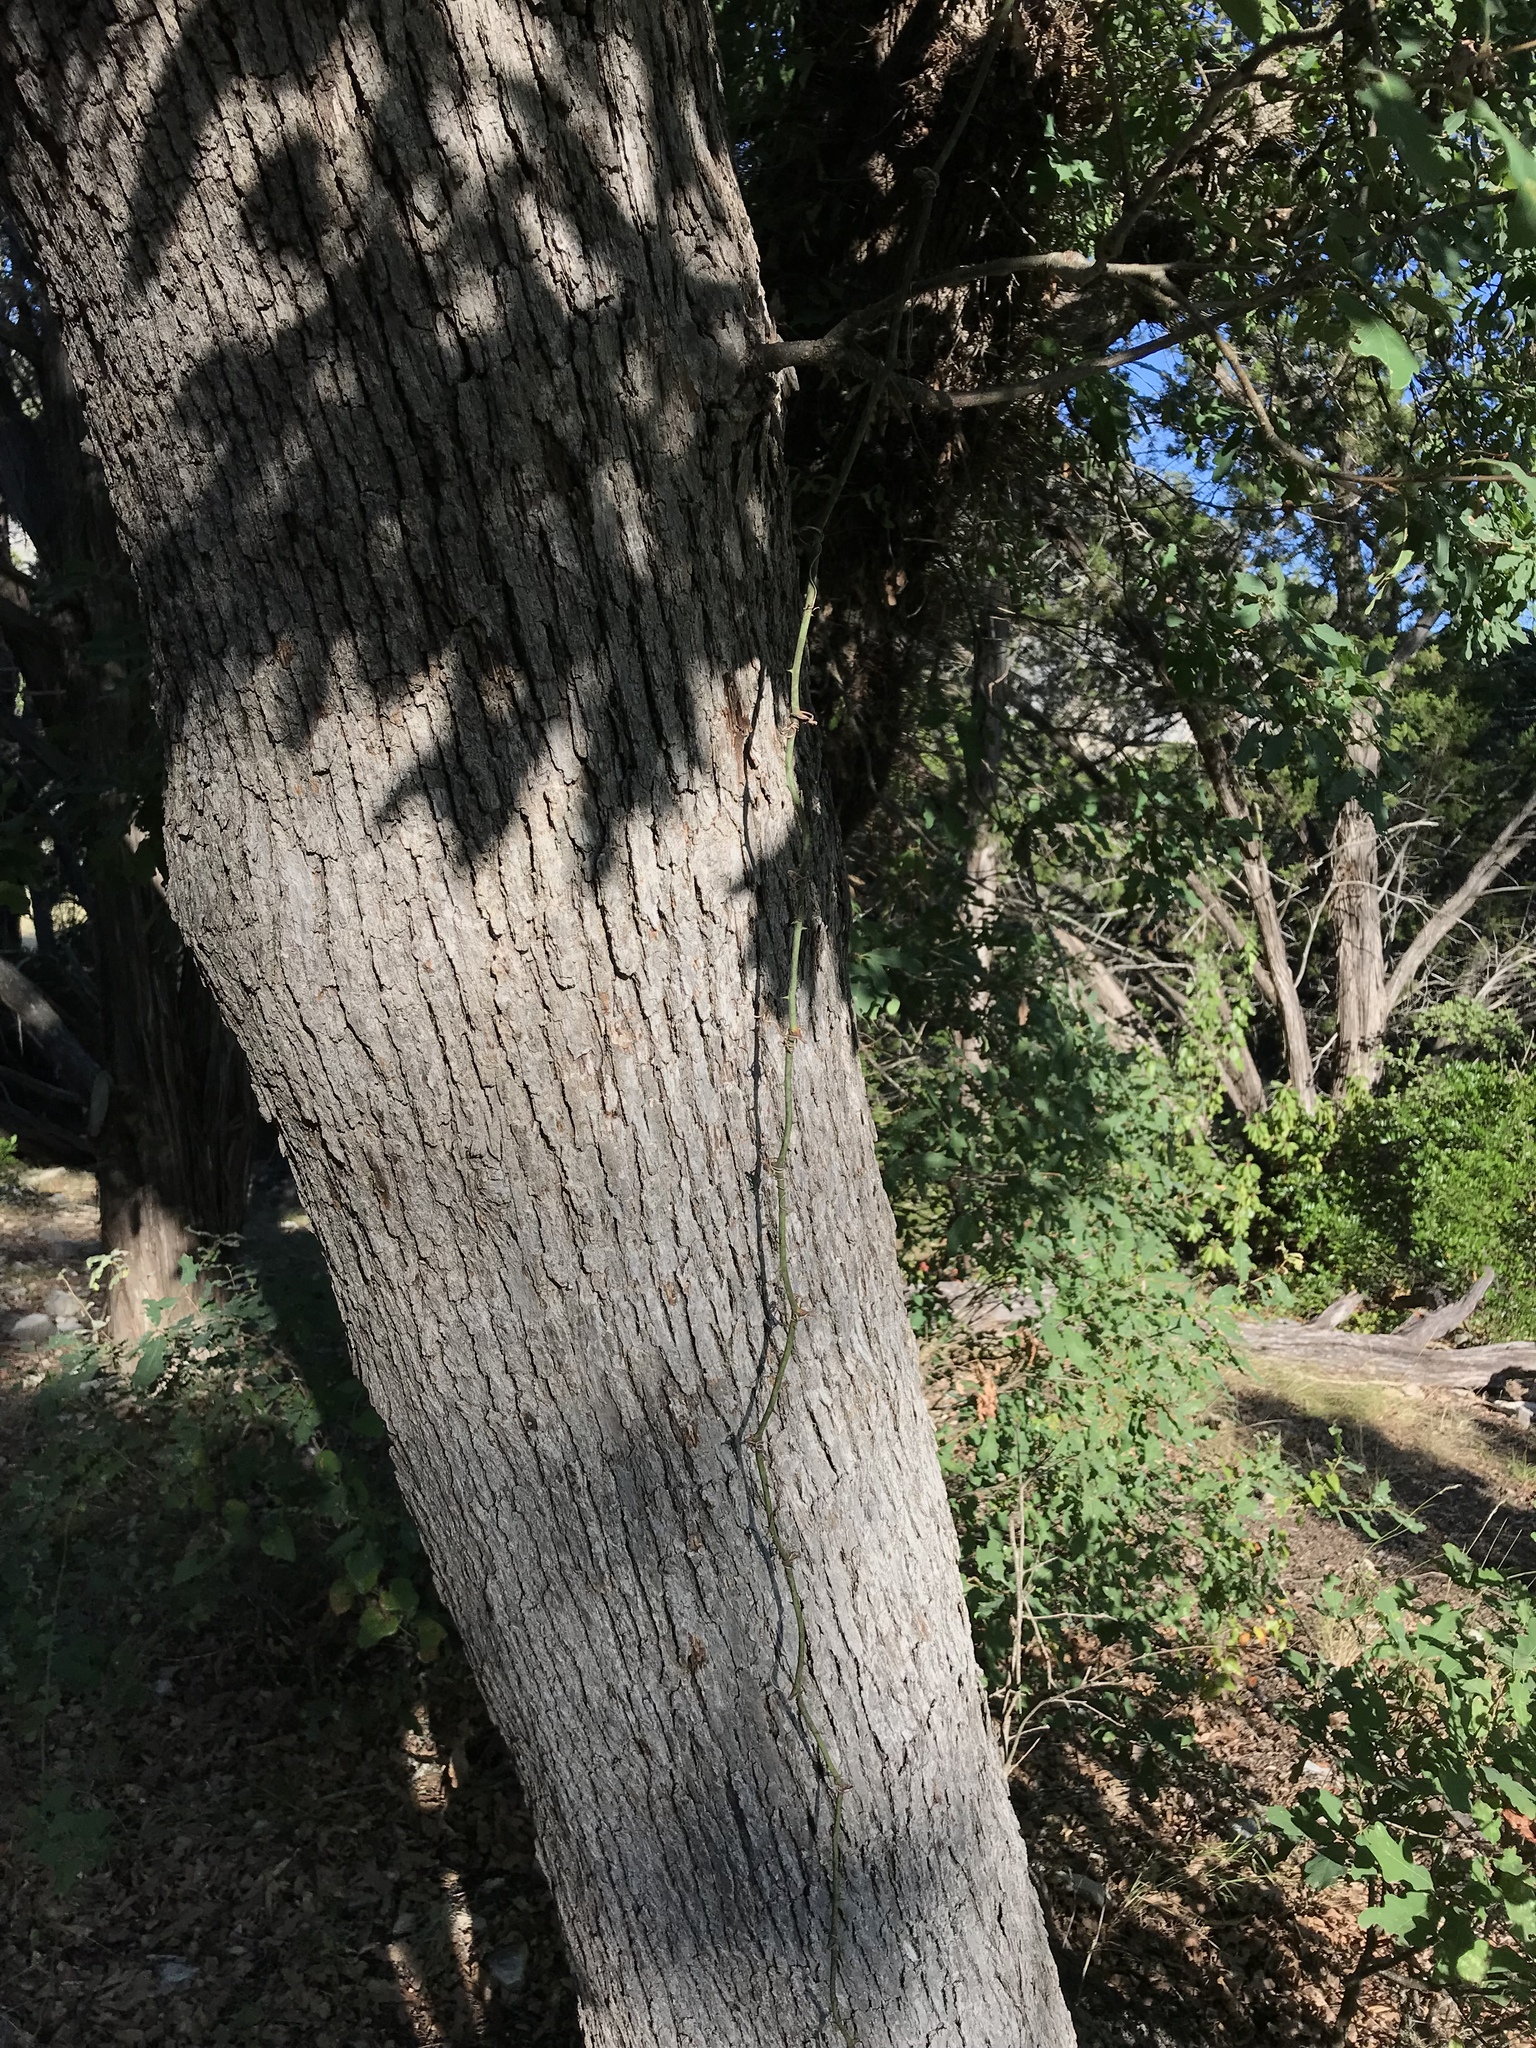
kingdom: Plantae
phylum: Tracheophyta
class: Magnoliopsida
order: Fagales
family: Fagaceae
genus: Quercus
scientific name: Quercus laceyi
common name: Lacey oak
